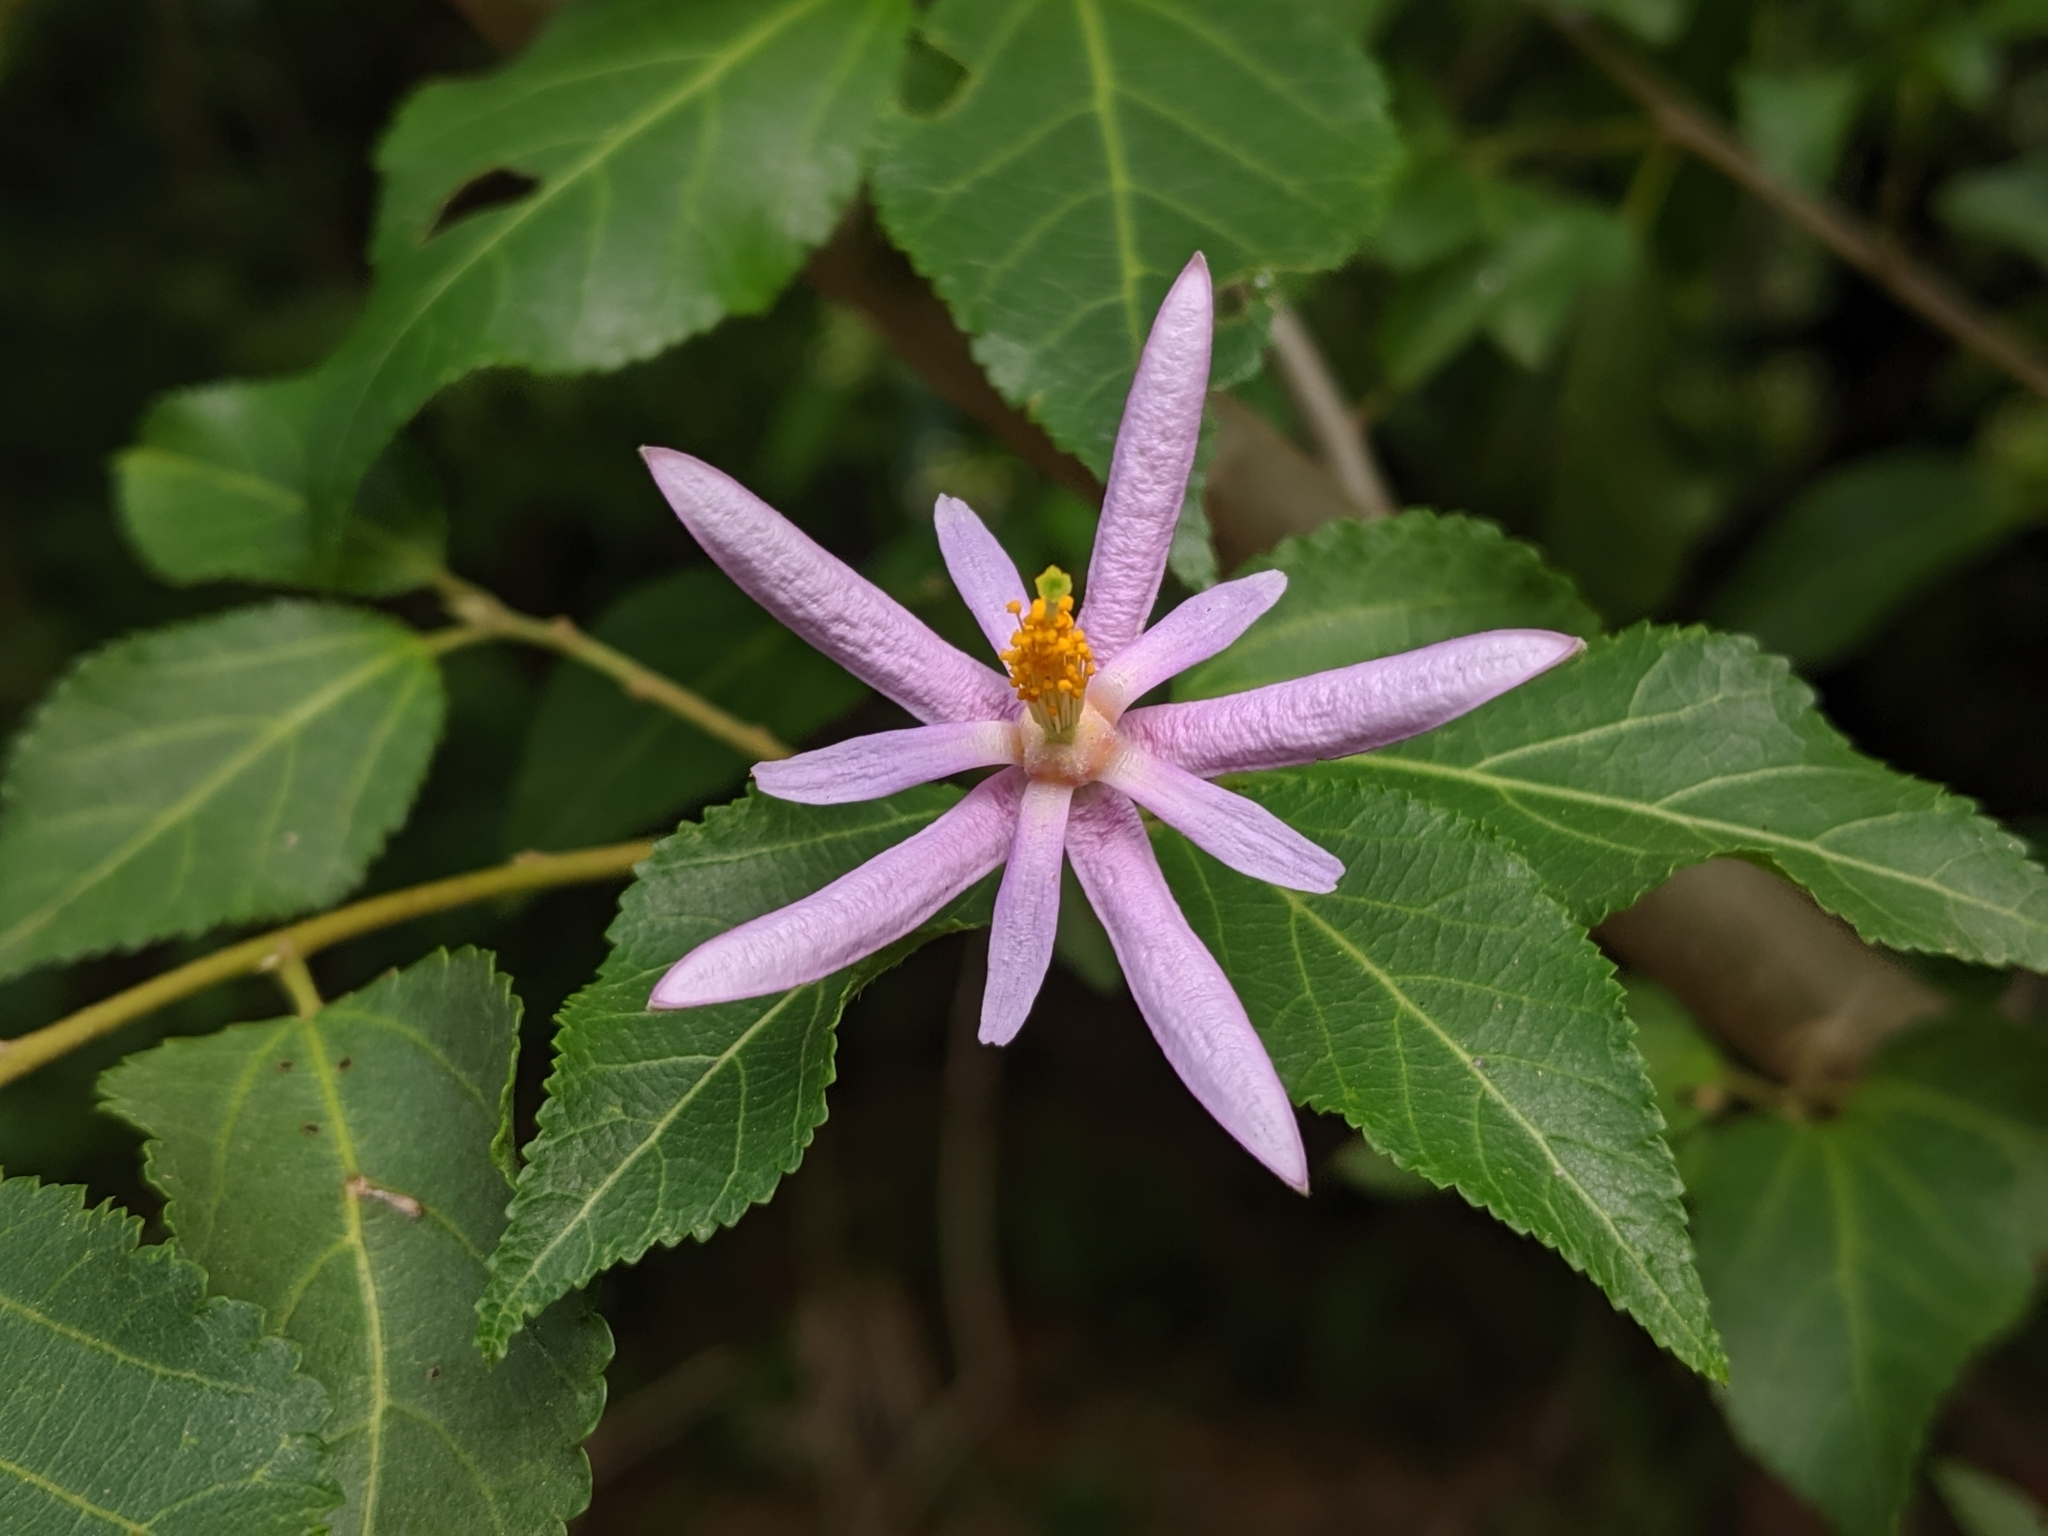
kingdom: Plantae
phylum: Tracheophyta
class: Magnoliopsida
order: Malvales
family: Malvaceae
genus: Grewia
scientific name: Grewia occidentalis
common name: Crossberry
